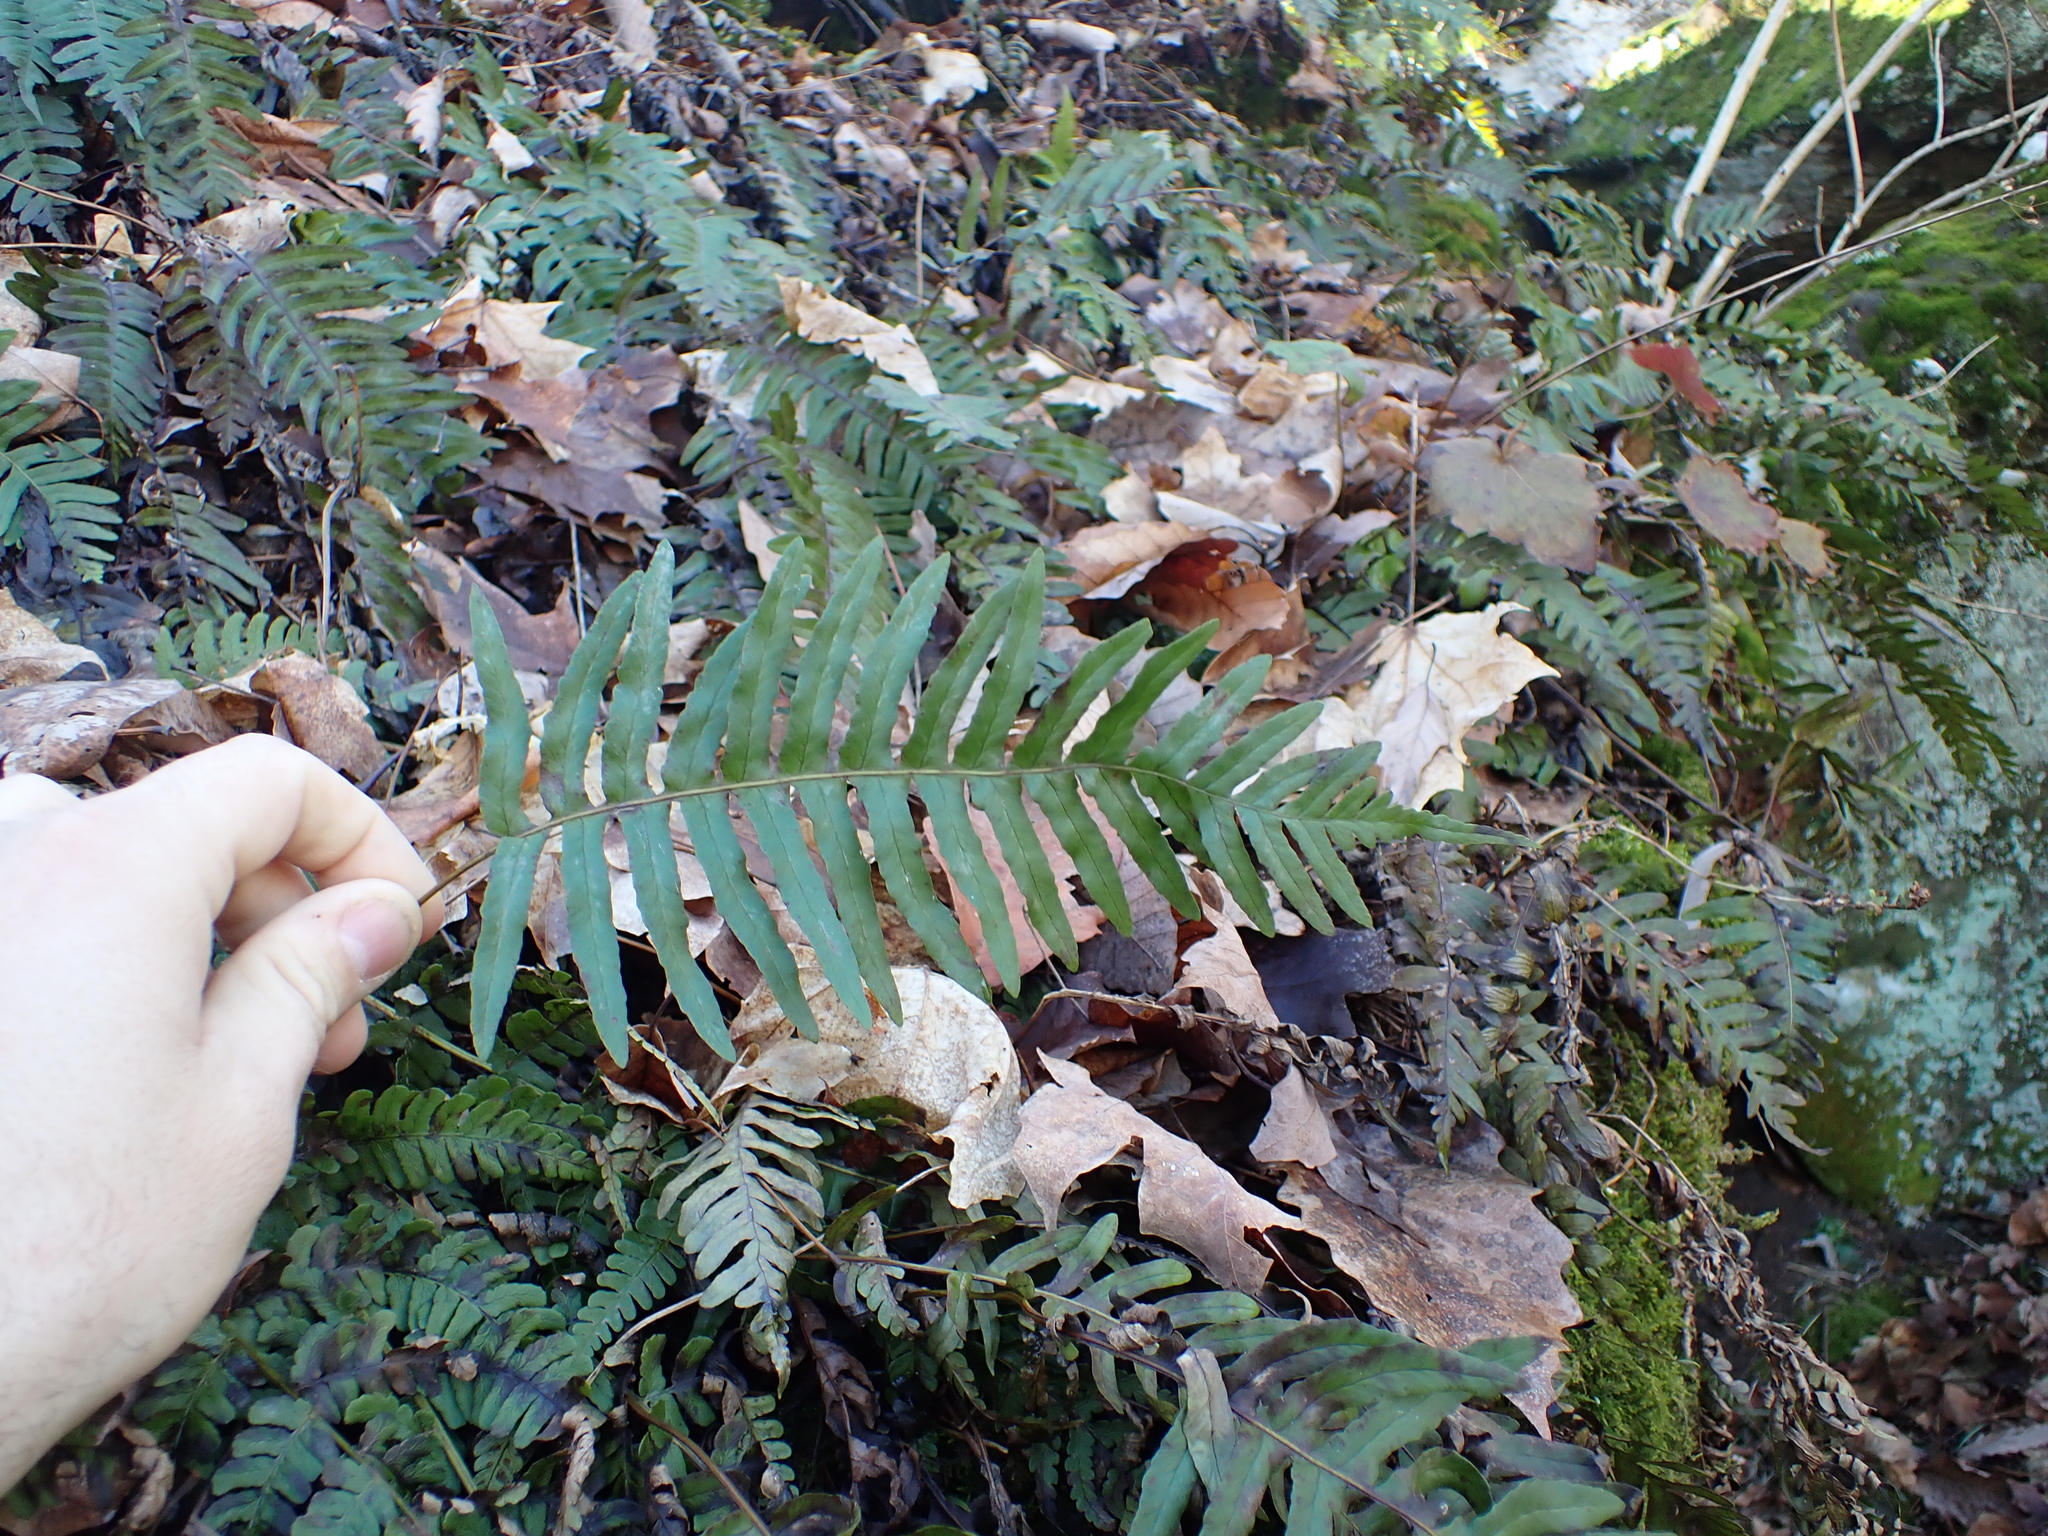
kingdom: Plantae
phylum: Tracheophyta
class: Polypodiopsida
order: Polypodiales
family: Polypodiaceae
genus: Polypodium
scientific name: Polypodium appalachianum
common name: Appalachian polypody
